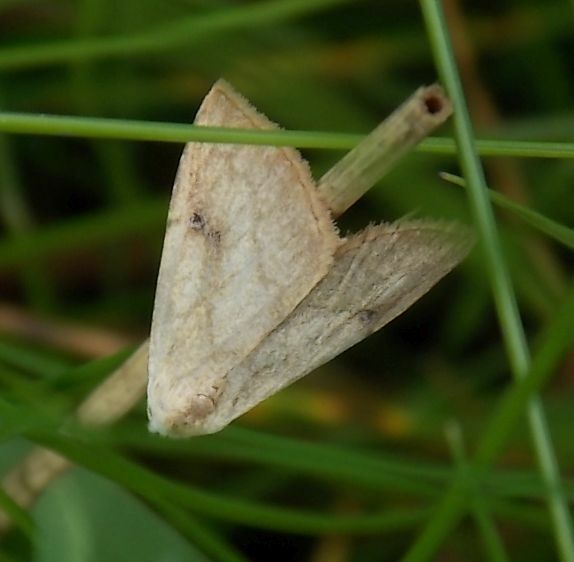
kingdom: Animalia
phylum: Arthropoda
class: Insecta
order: Lepidoptera
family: Erebidae
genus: Rivula
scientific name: Rivula sericealis
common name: Straw dot
